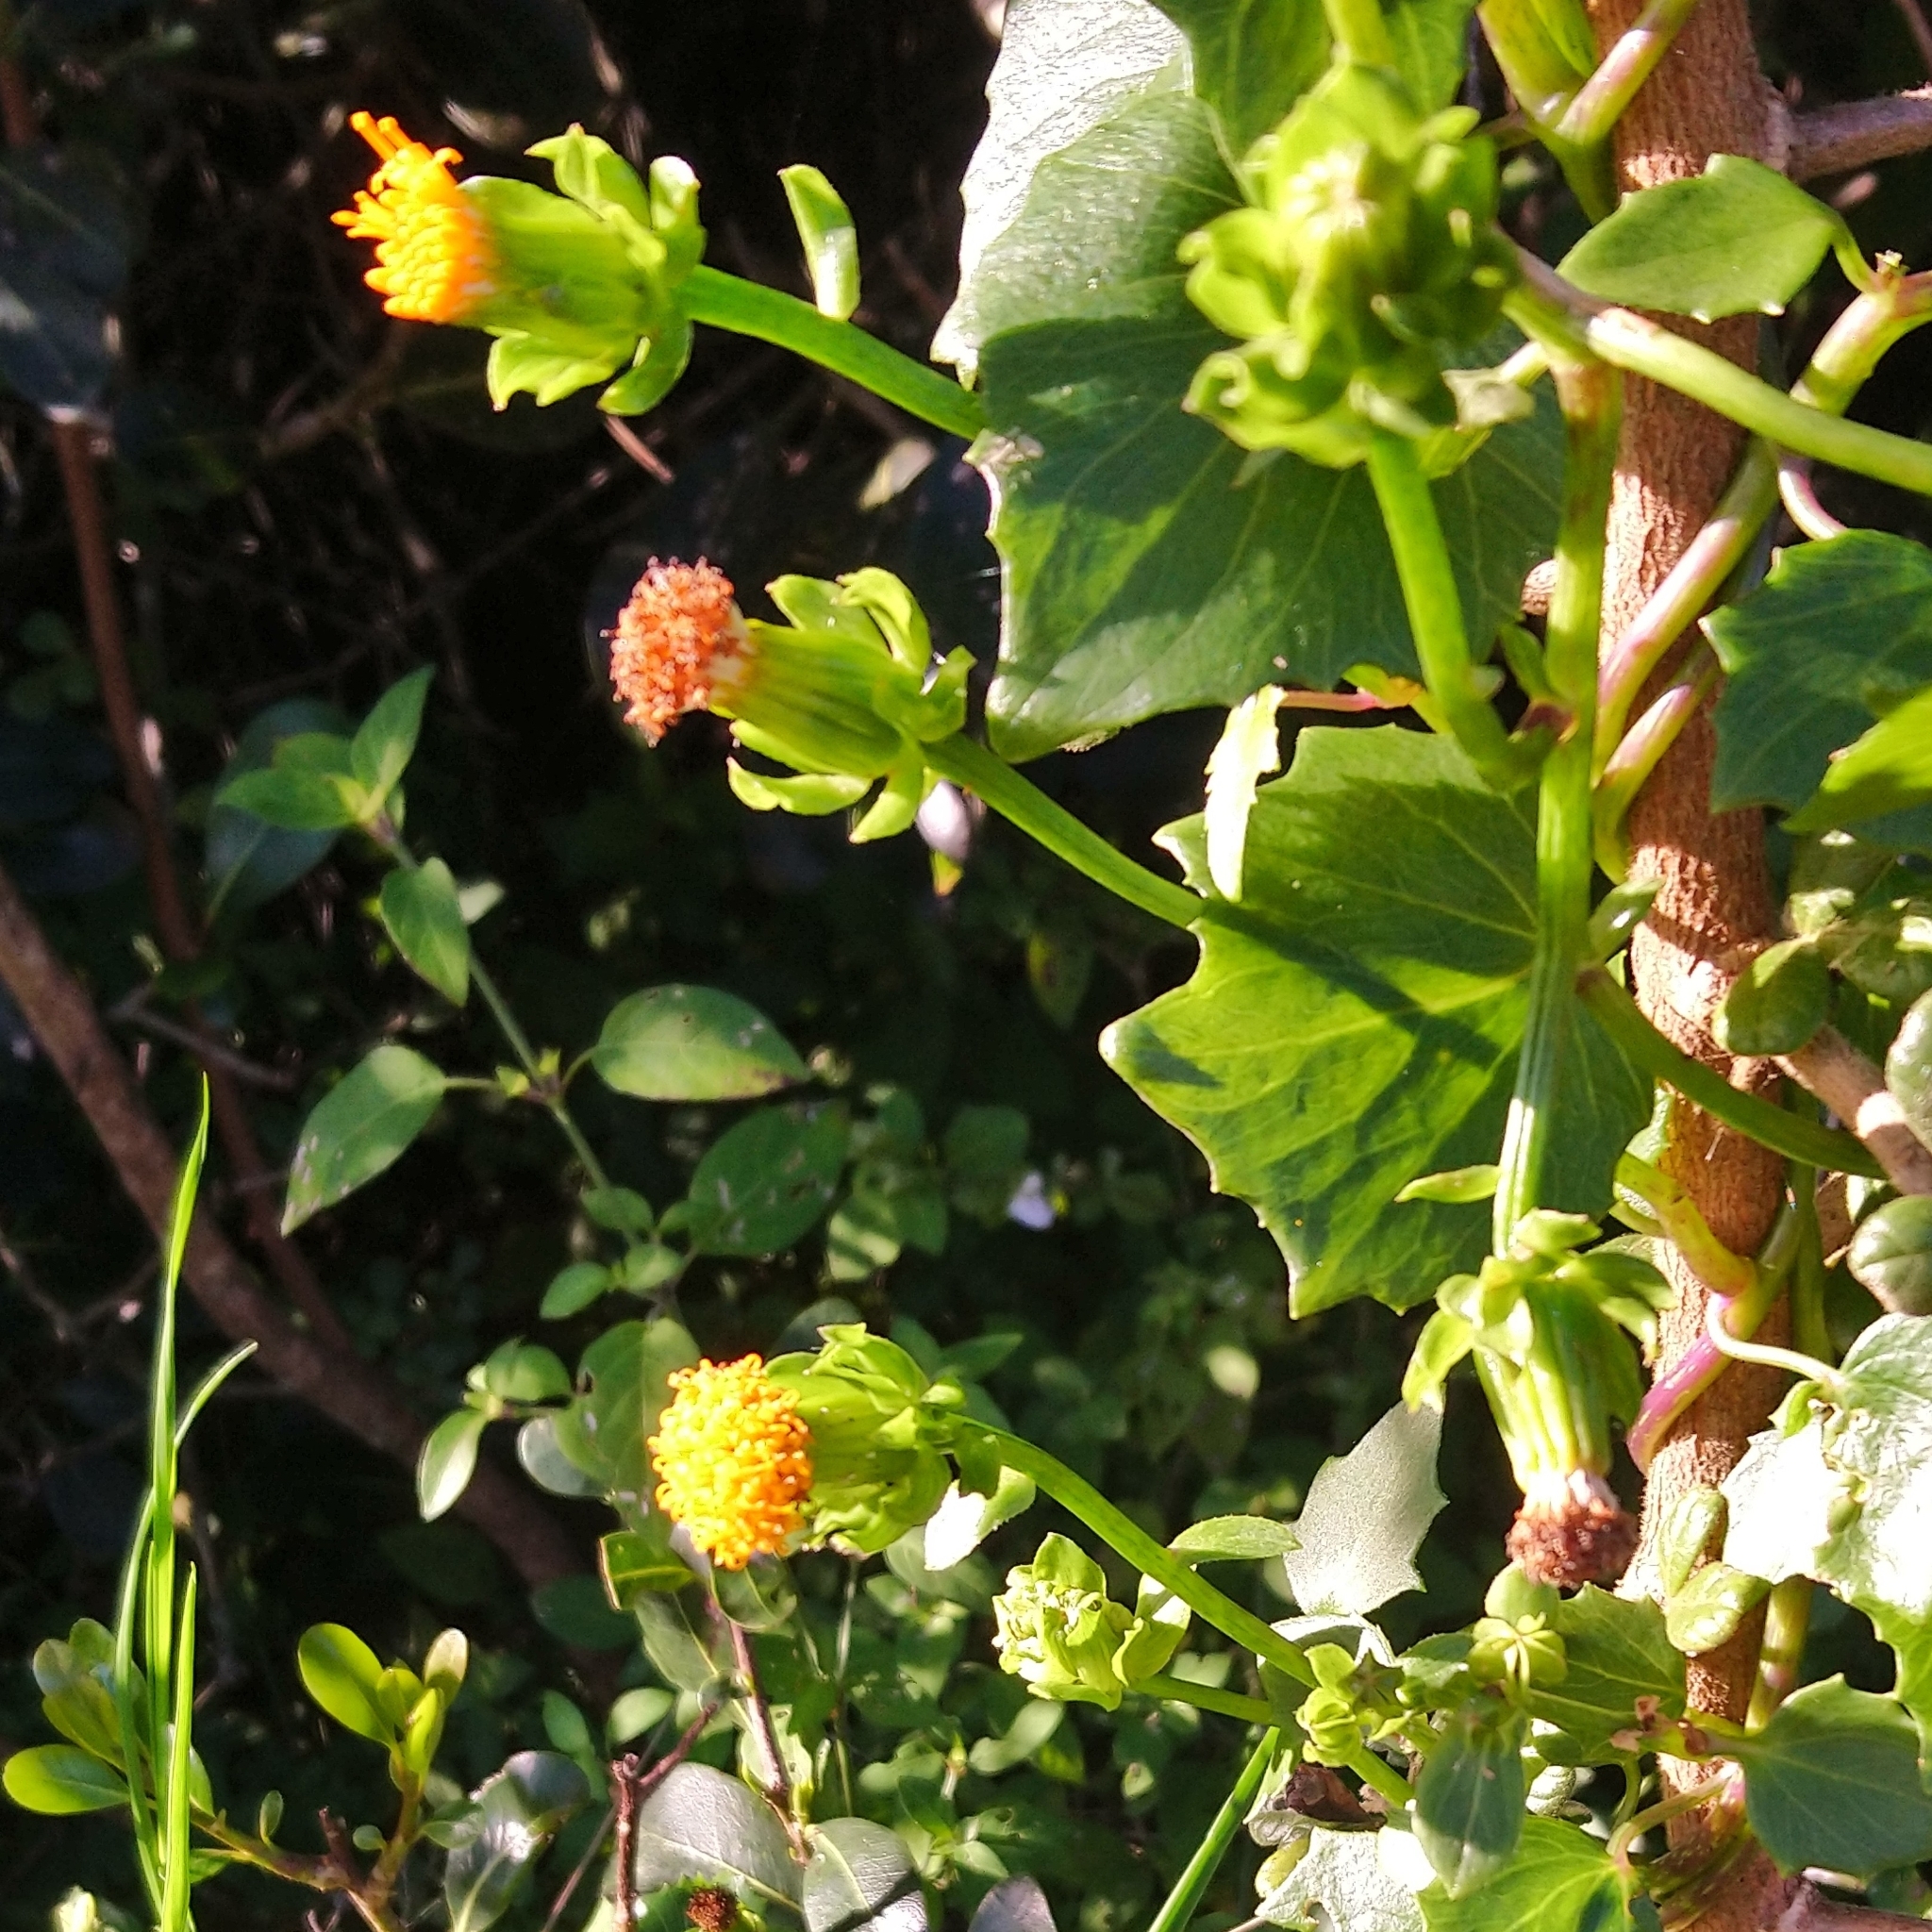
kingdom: Plantae
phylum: Tracheophyta
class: Magnoliopsida
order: Asterales
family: Asteraceae
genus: Senecio
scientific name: Senecio quinquelobus
